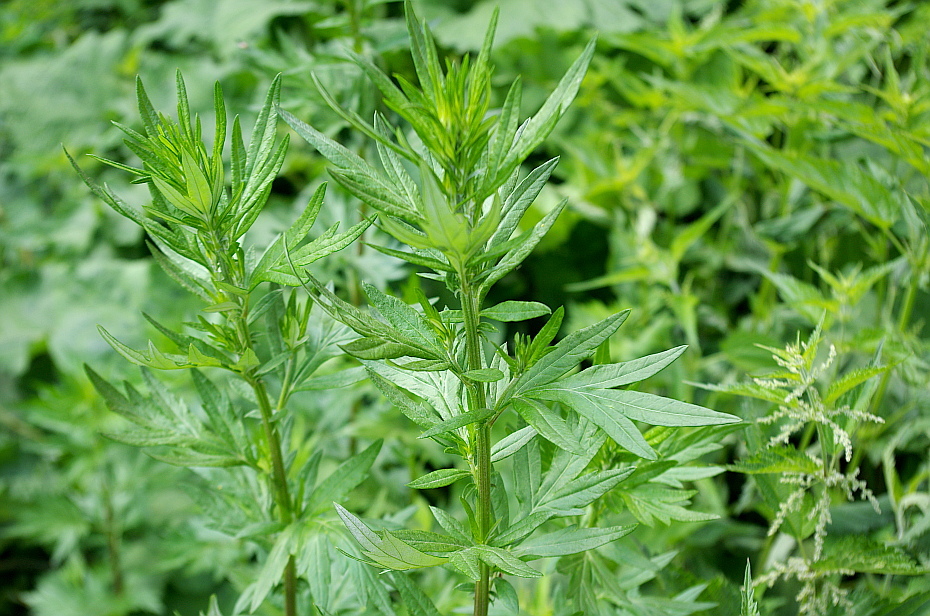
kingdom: Plantae
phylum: Tracheophyta
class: Magnoliopsida
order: Asterales
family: Asteraceae
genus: Artemisia
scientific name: Artemisia vulgaris
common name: Mugwort
